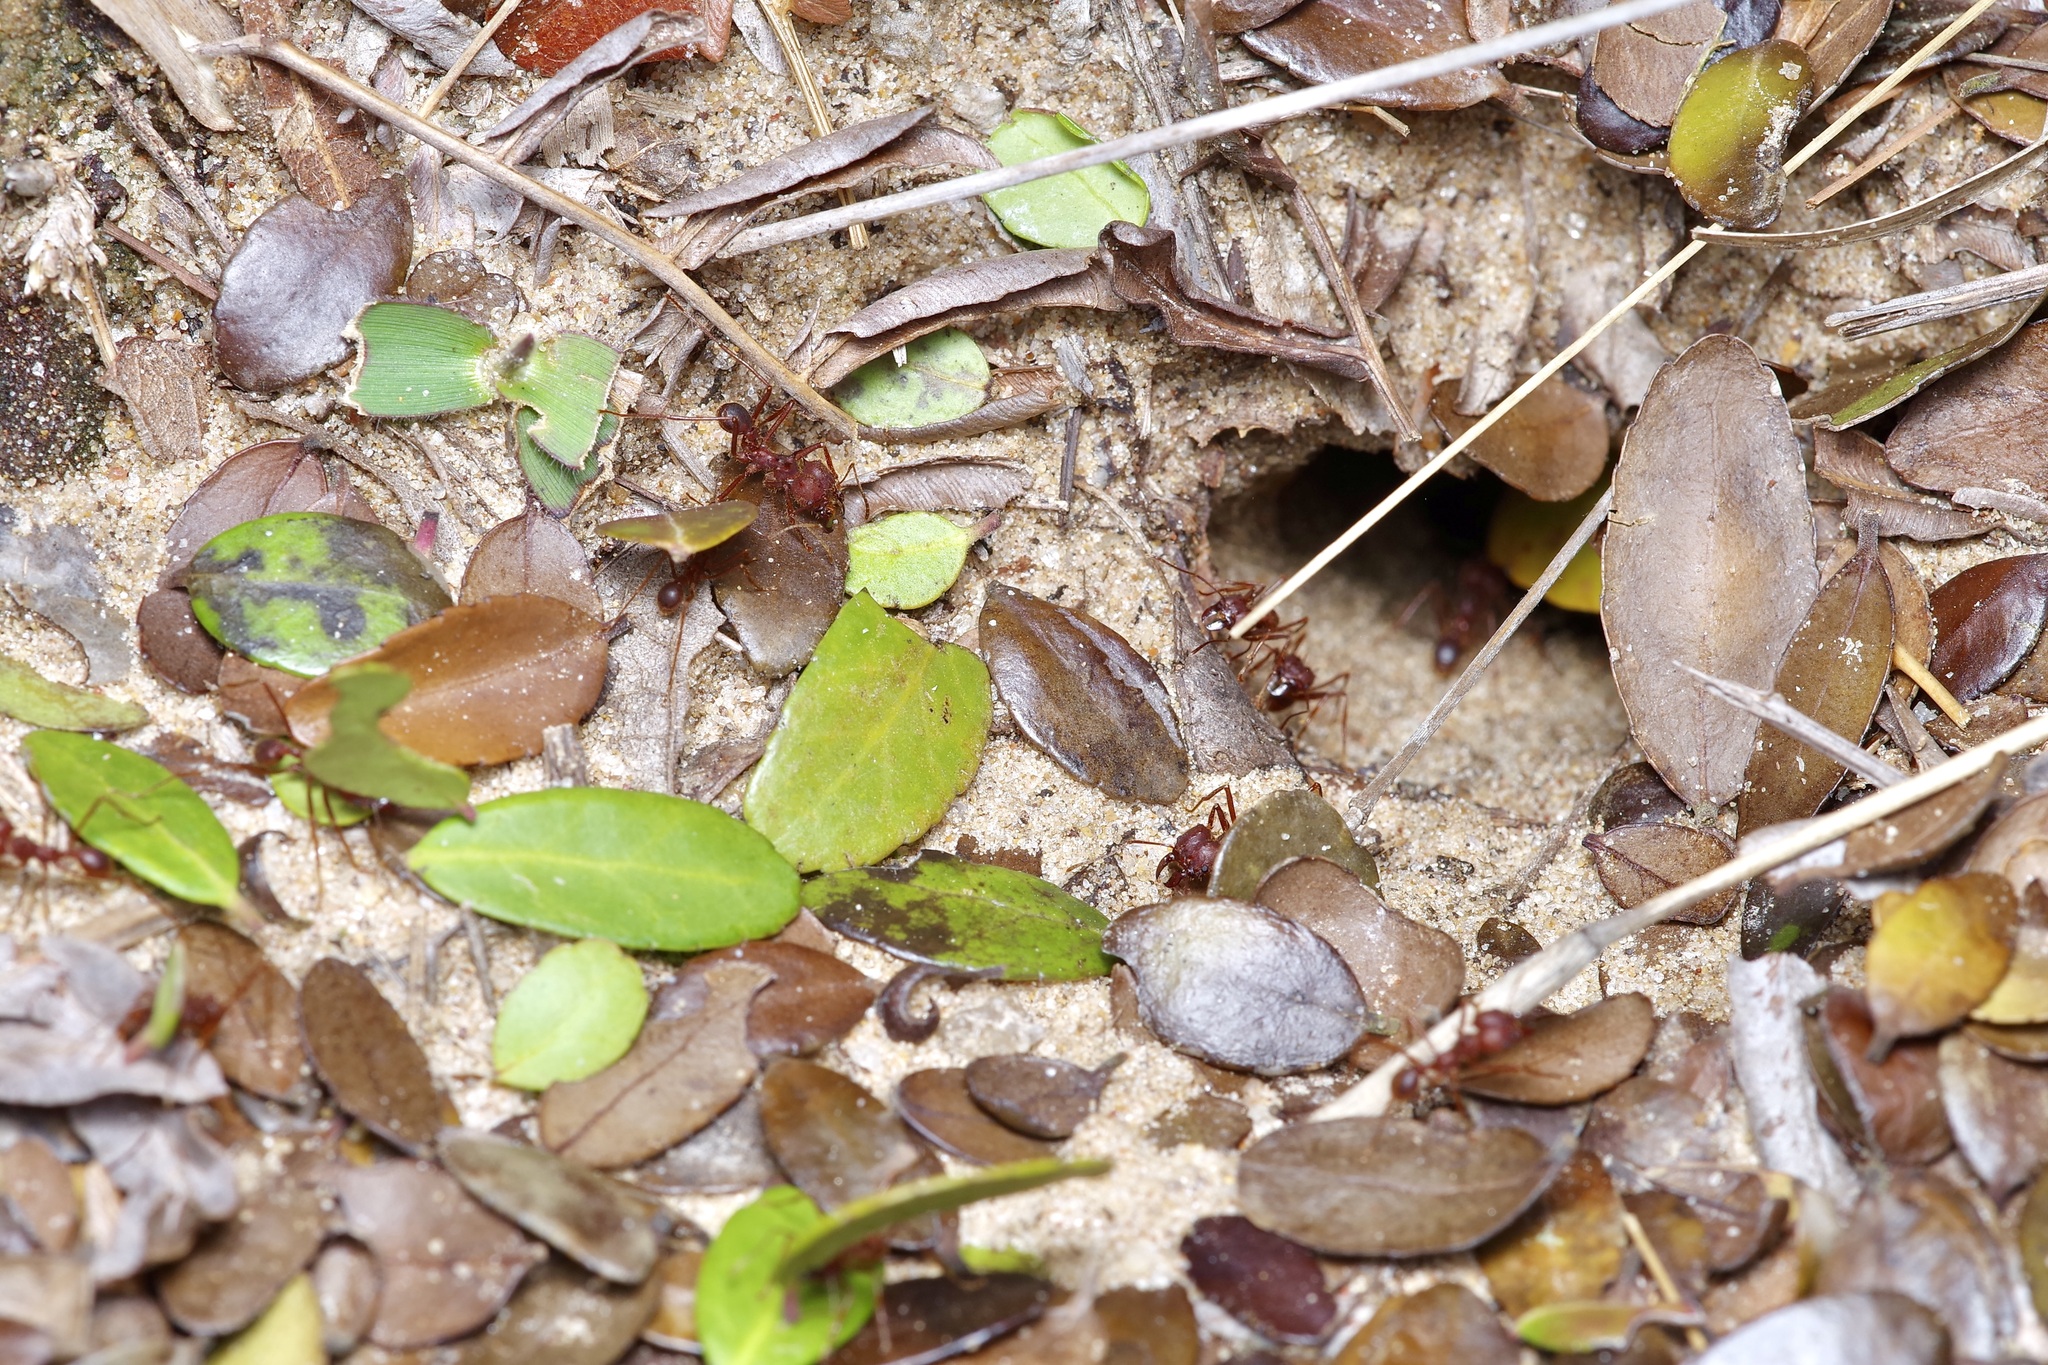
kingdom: Animalia
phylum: Arthropoda
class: Insecta
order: Hymenoptera
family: Formicidae
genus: Atta
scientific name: Atta texana
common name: Texas leafcutting ant
